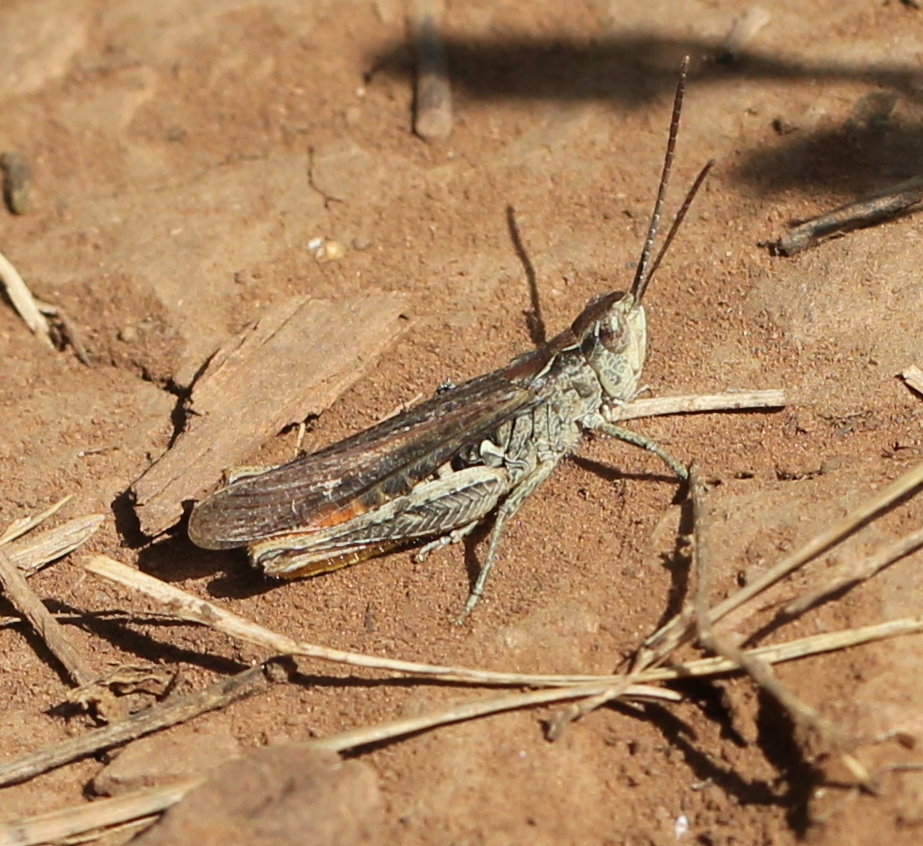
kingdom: Animalia
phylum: Arthropoda
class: Insecta
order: Orthoptera
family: Acrididae
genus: Chorthippus
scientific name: Chorthippus brunneus
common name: Field grasshopper
